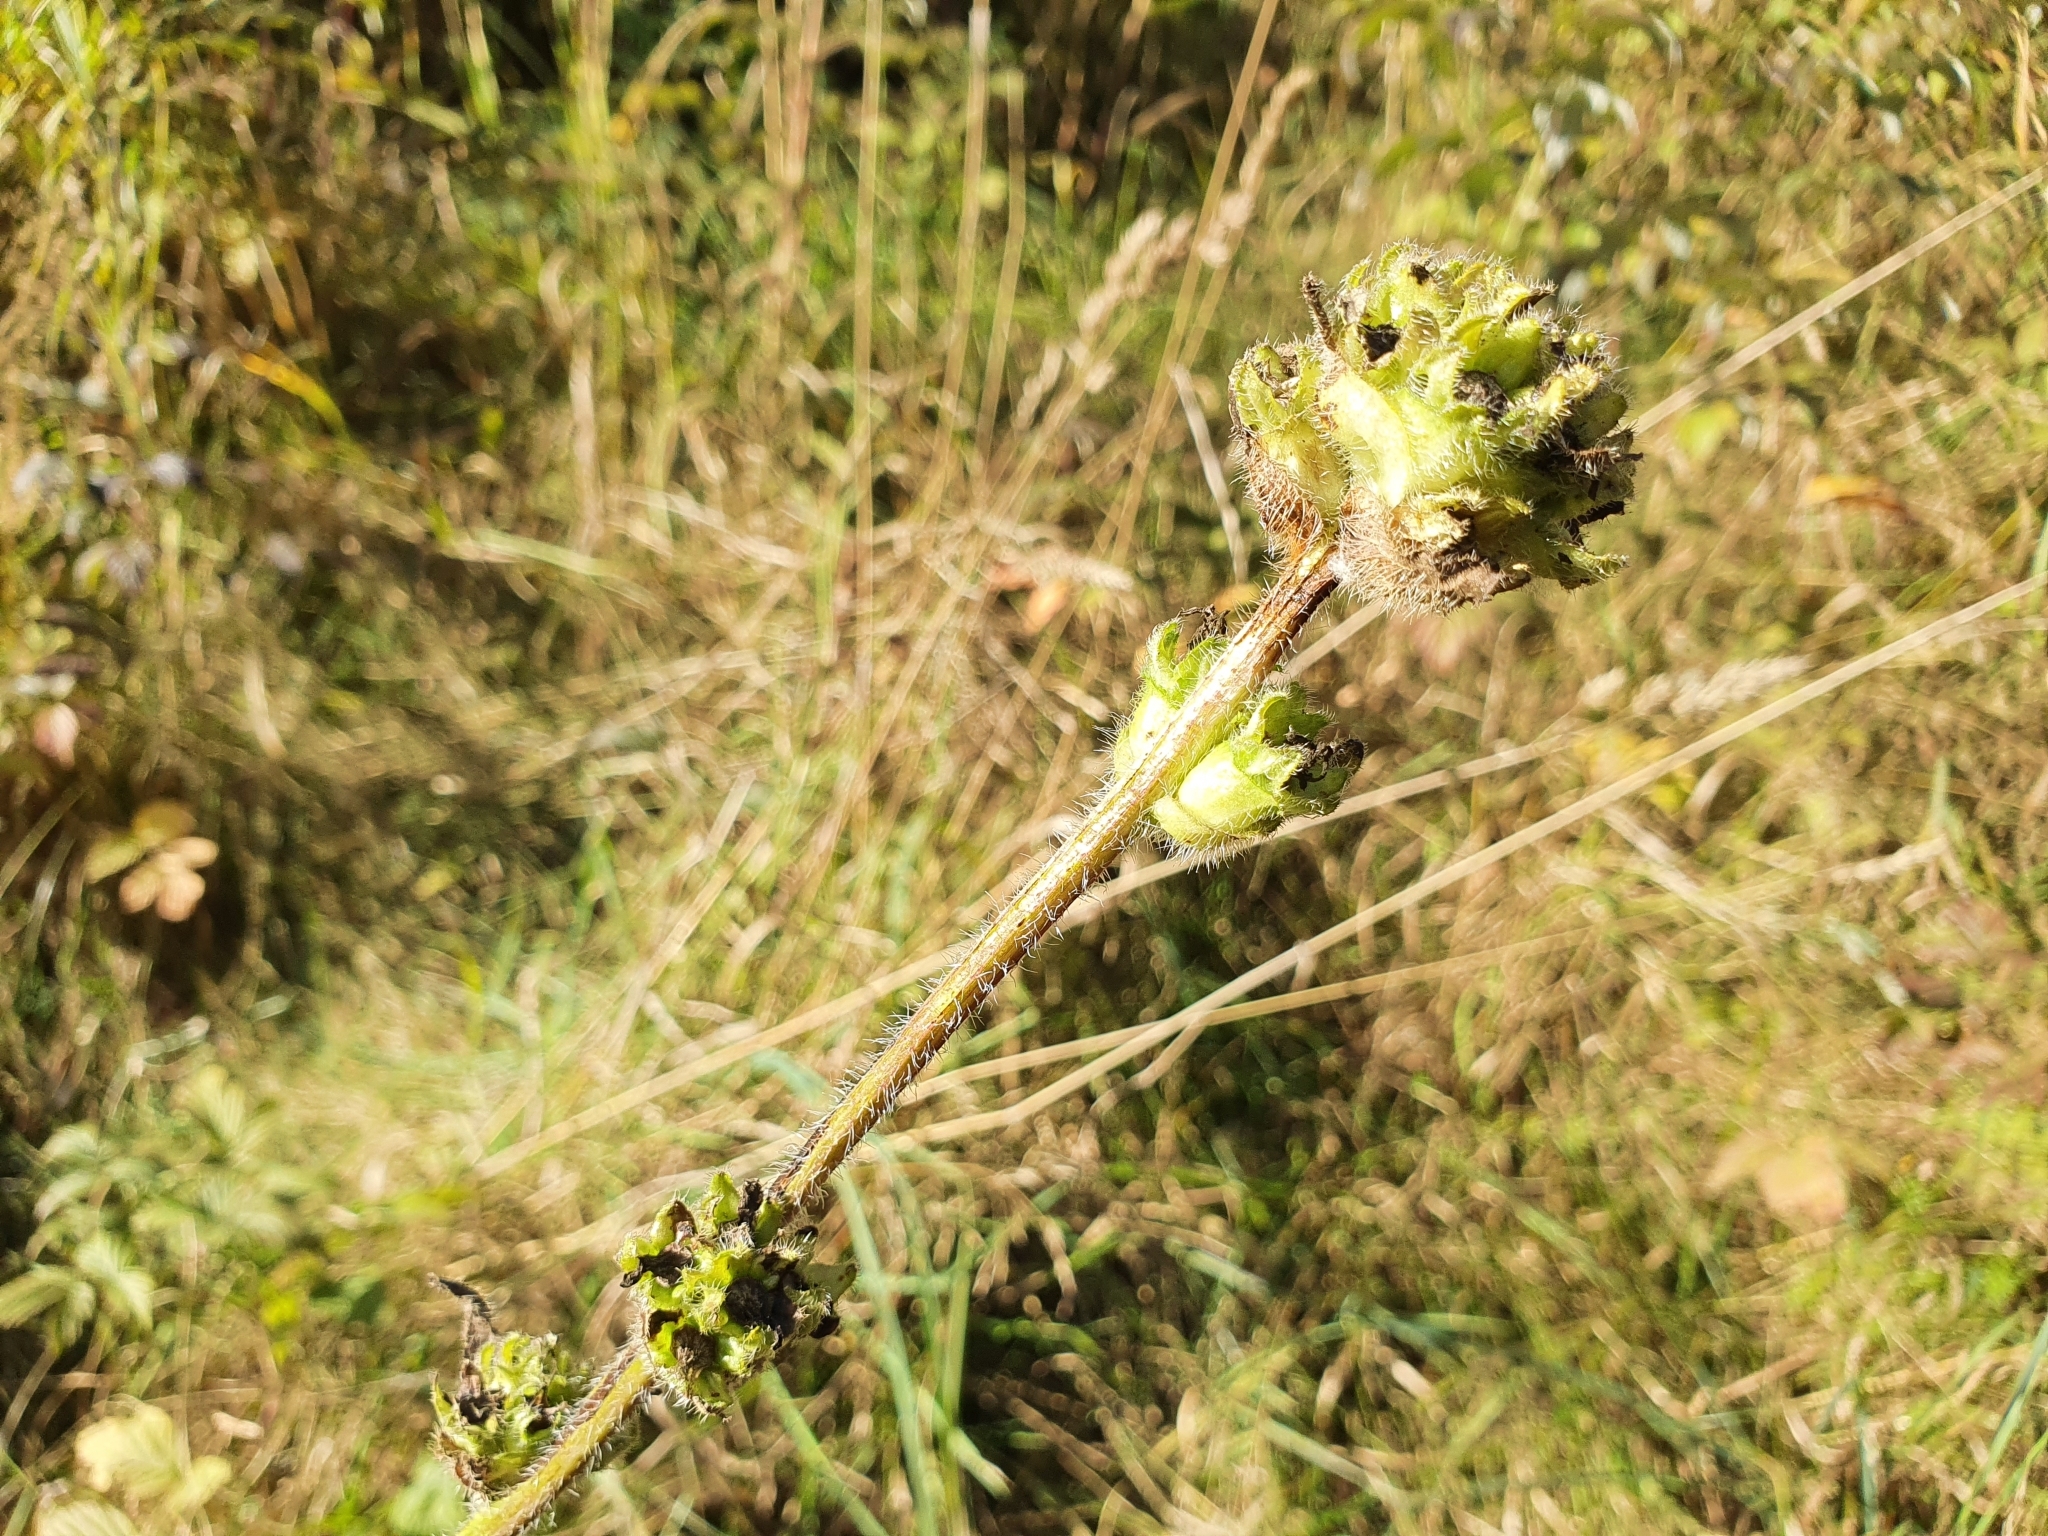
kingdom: Plantae
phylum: Tracheophyta
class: Magnoliopsida
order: Asterales
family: Campanulaceae
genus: Campanula
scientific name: Campanula cervicaria
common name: Bristly bellflower
